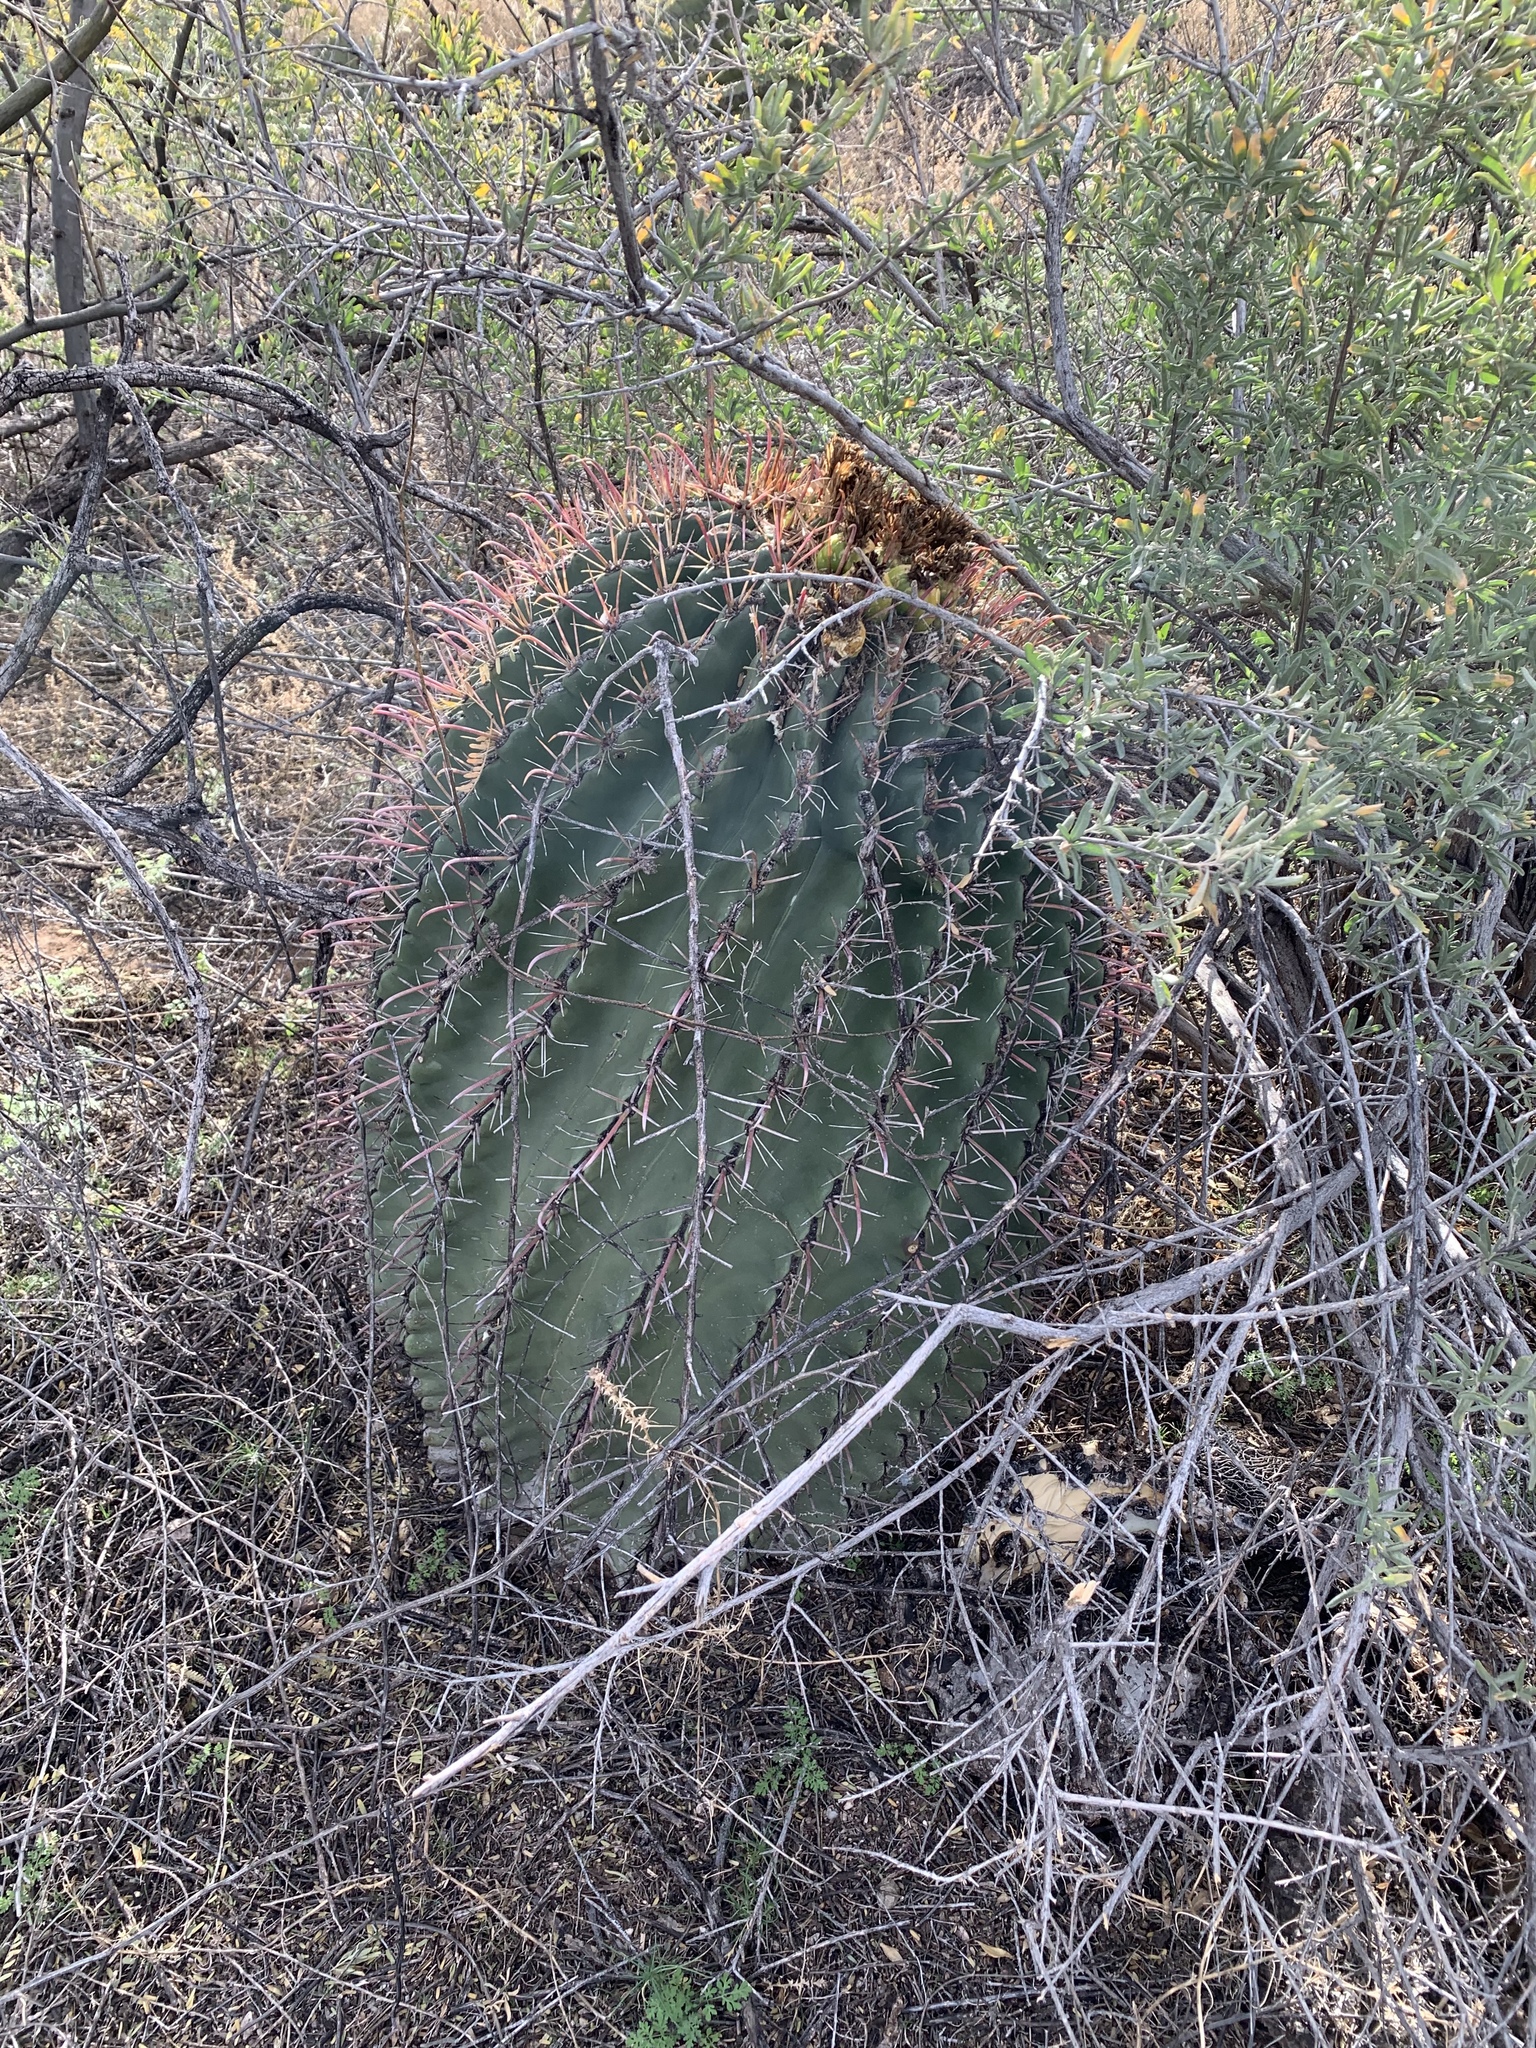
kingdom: Plantae
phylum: Tracheophyta
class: Magnoliopsida
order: Caryophyllales
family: Cactaceae
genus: Ferocactus
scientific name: Ferocactus wislizeni
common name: Candy barrel cactus
